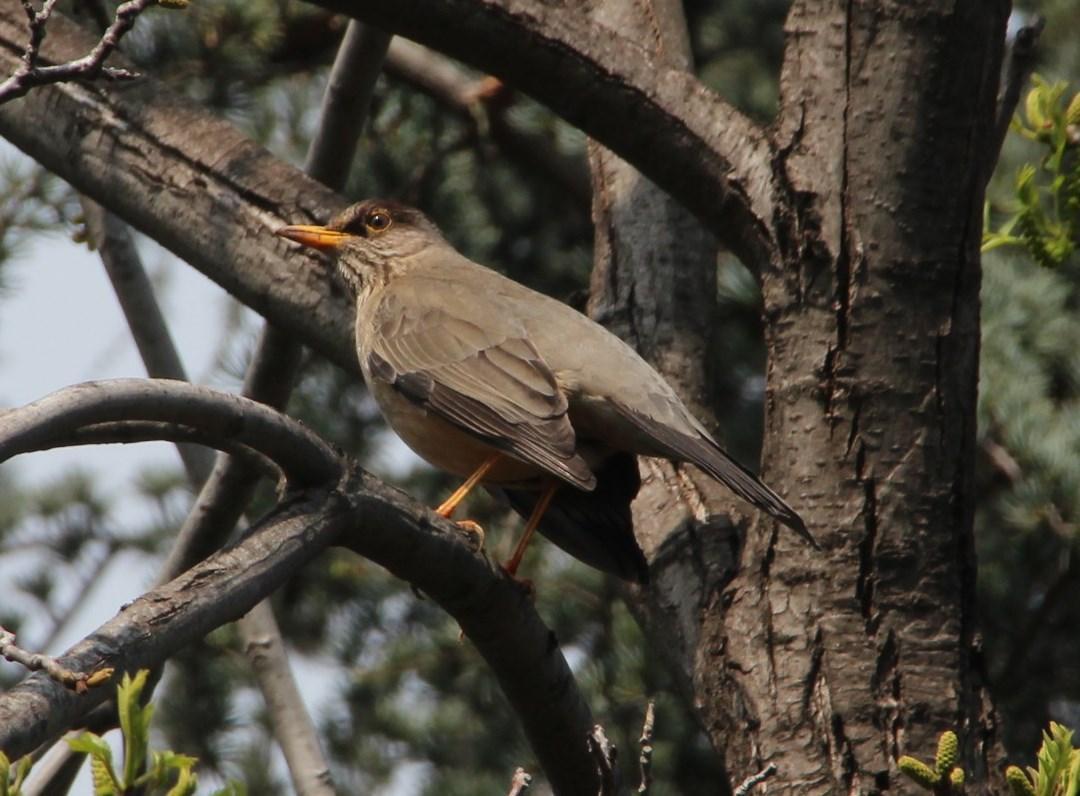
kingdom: Animalia
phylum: Chordata
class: Aves
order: Passeriformes
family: Turdidae
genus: Turdus
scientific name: Turdus falcklandii
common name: Austral thrush
